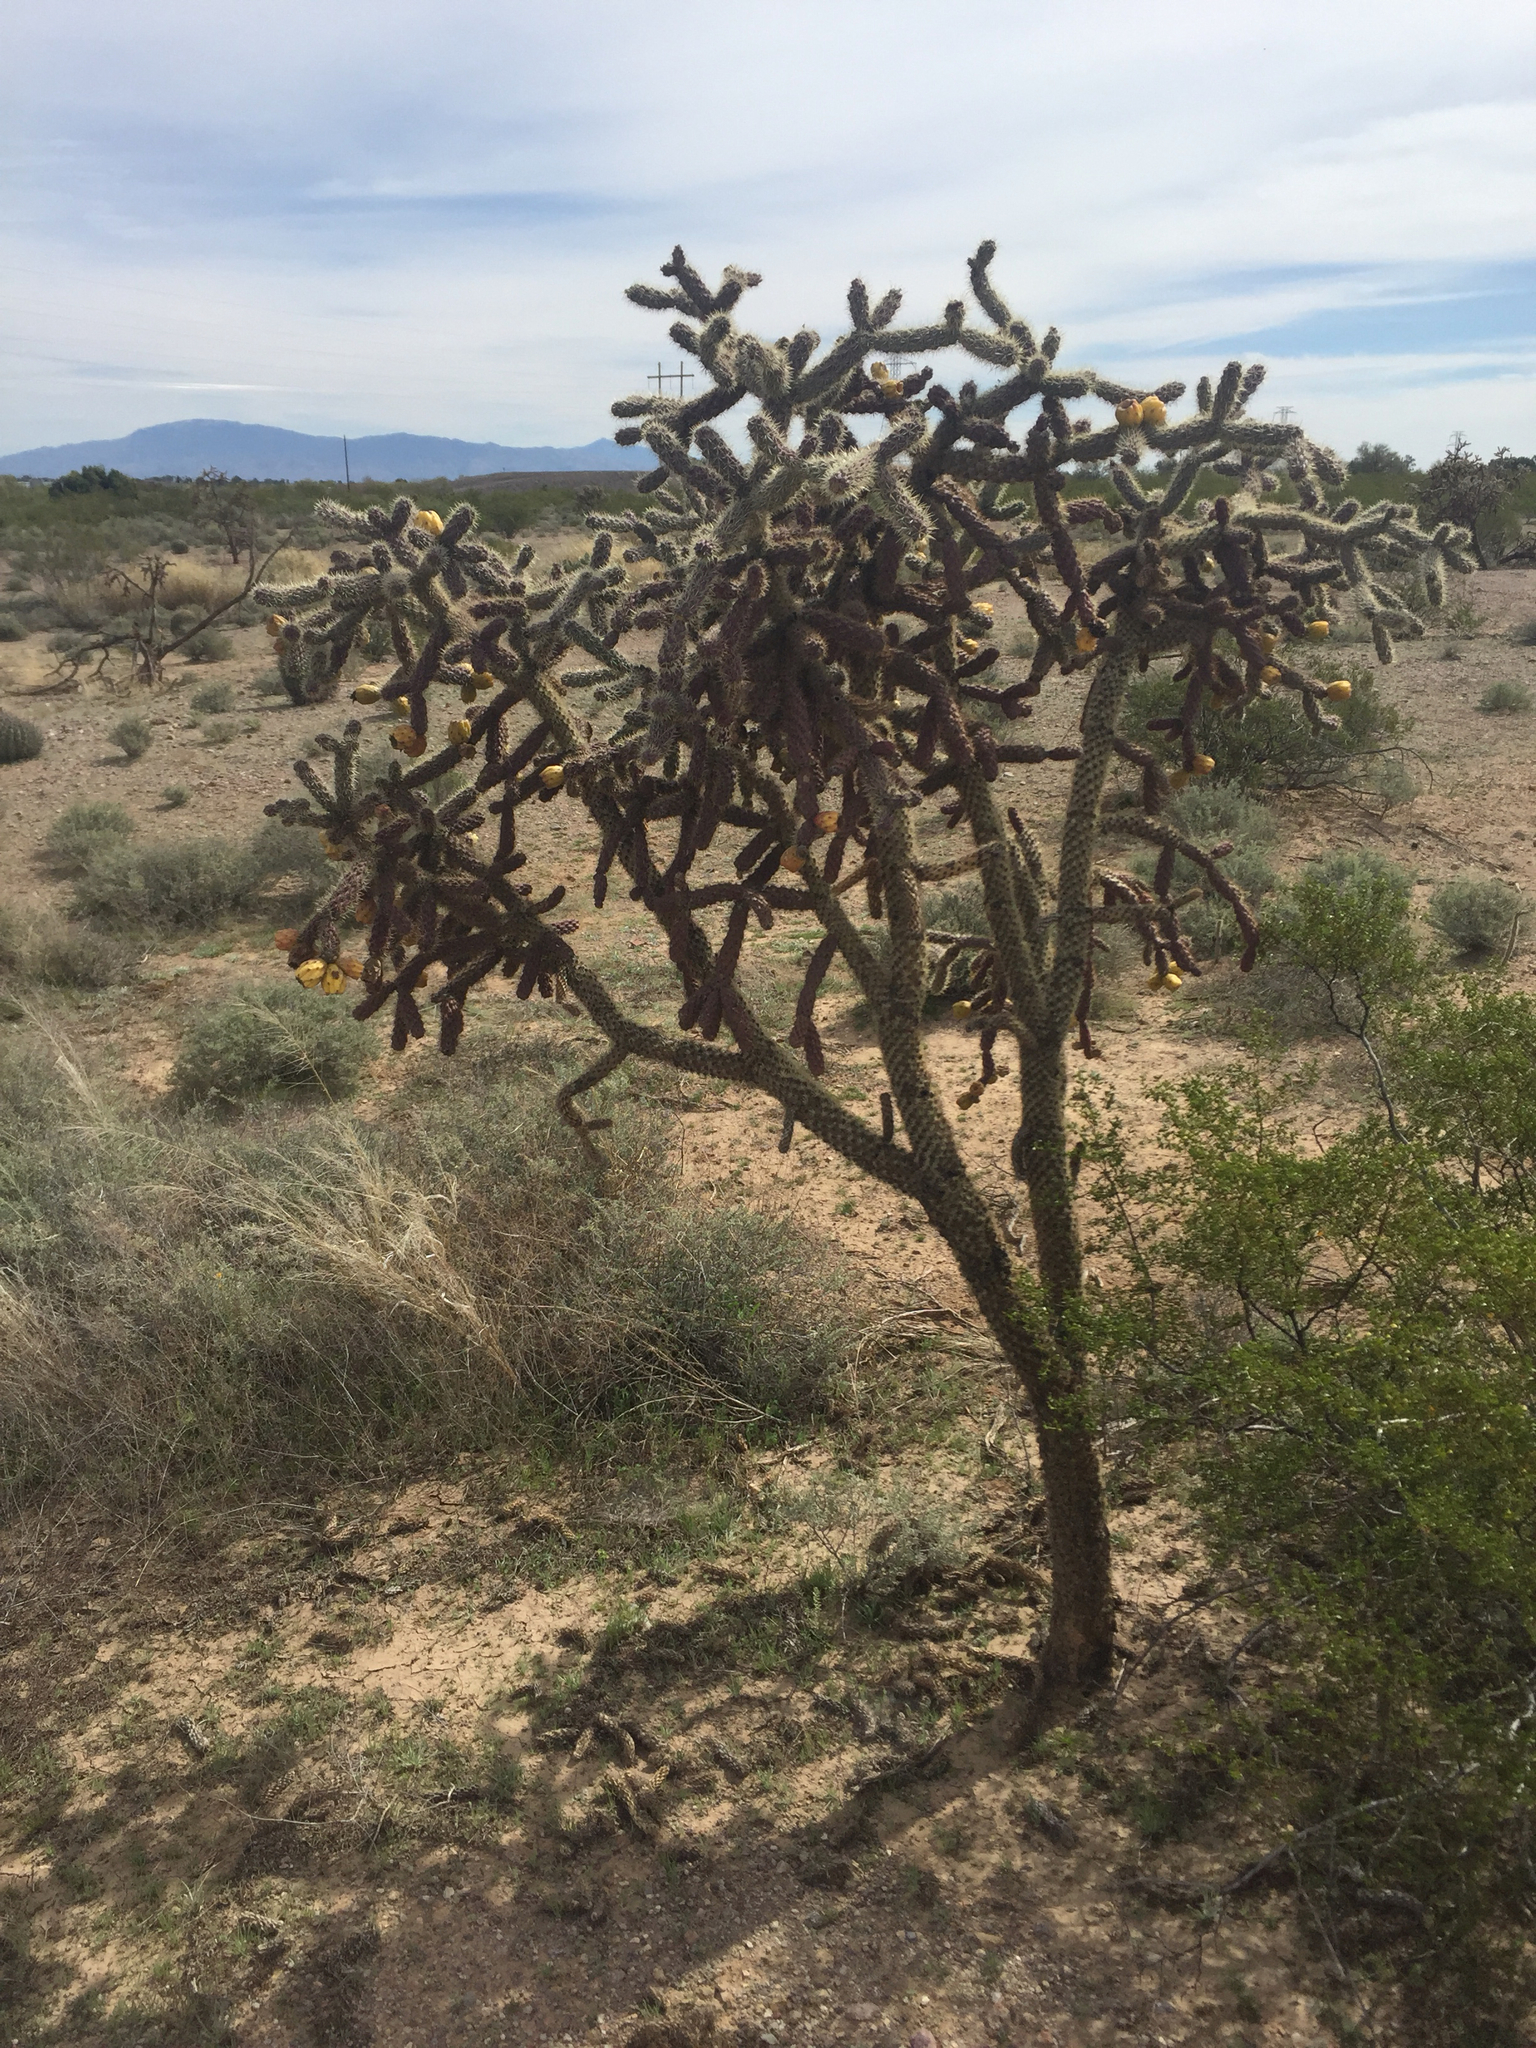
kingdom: Plantae
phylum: Tracheophyta
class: Magnoliopsida
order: Caryophyllales
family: Cactaceae
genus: Cylindropuntia
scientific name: Cylindropuntia imbricata
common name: Candelabrum cactus
